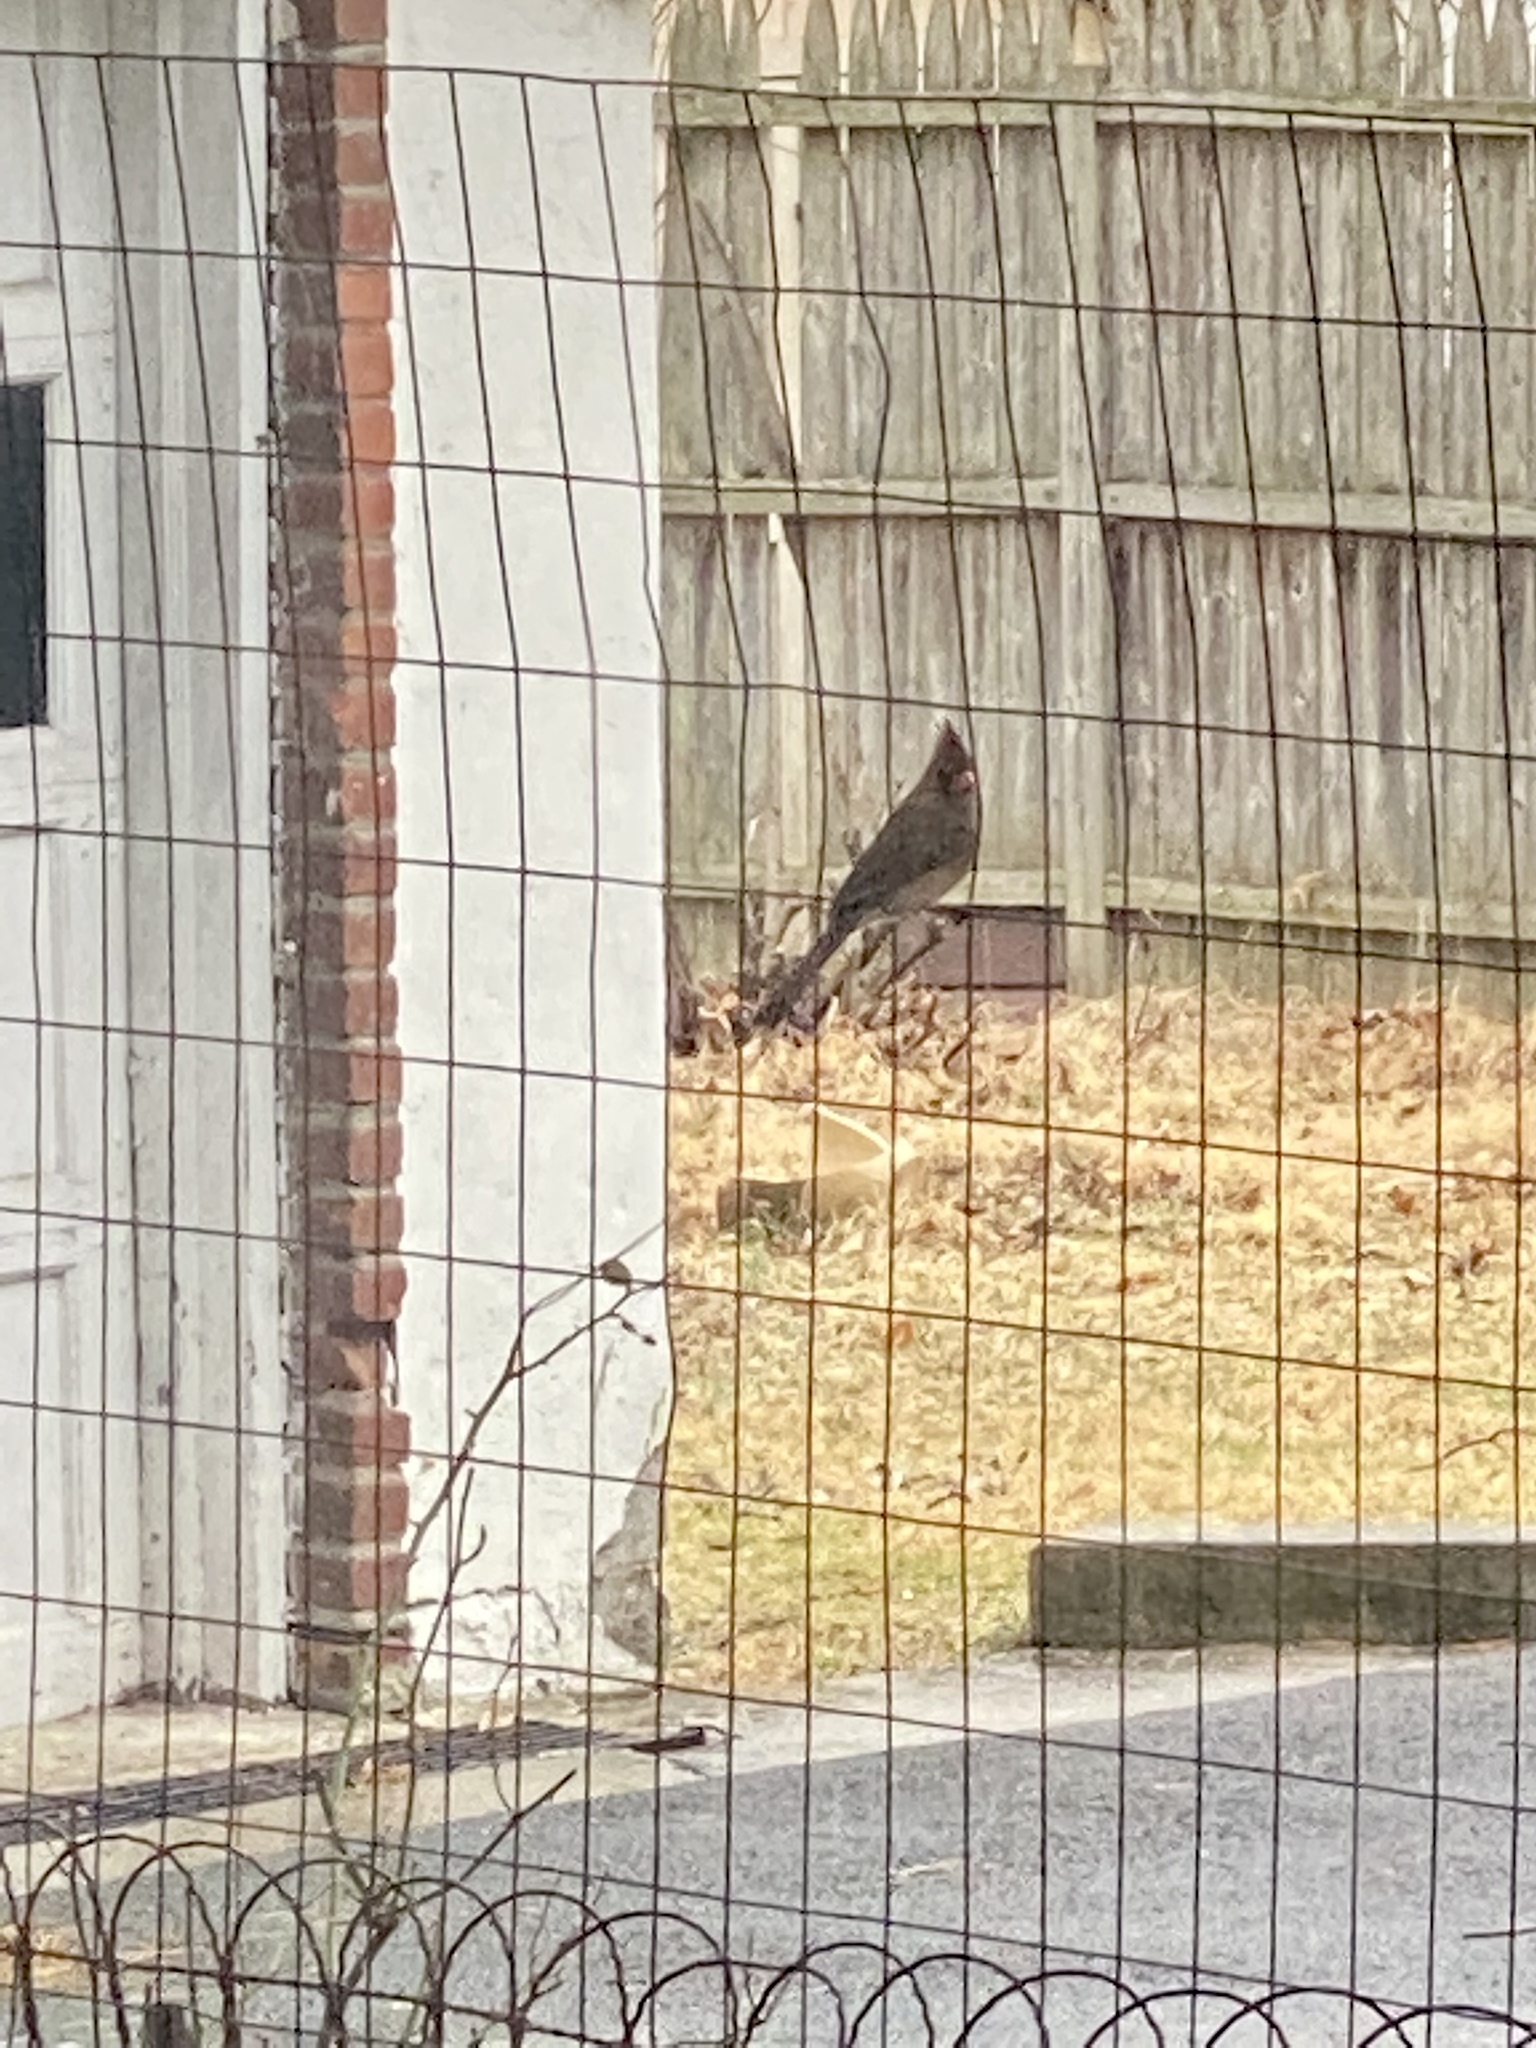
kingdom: Animalia
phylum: Chordata
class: Aves
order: Passeriformes
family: Cardinalidae
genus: Cardinalis
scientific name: Cardinalis cardinalis
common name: Northern cardinal
